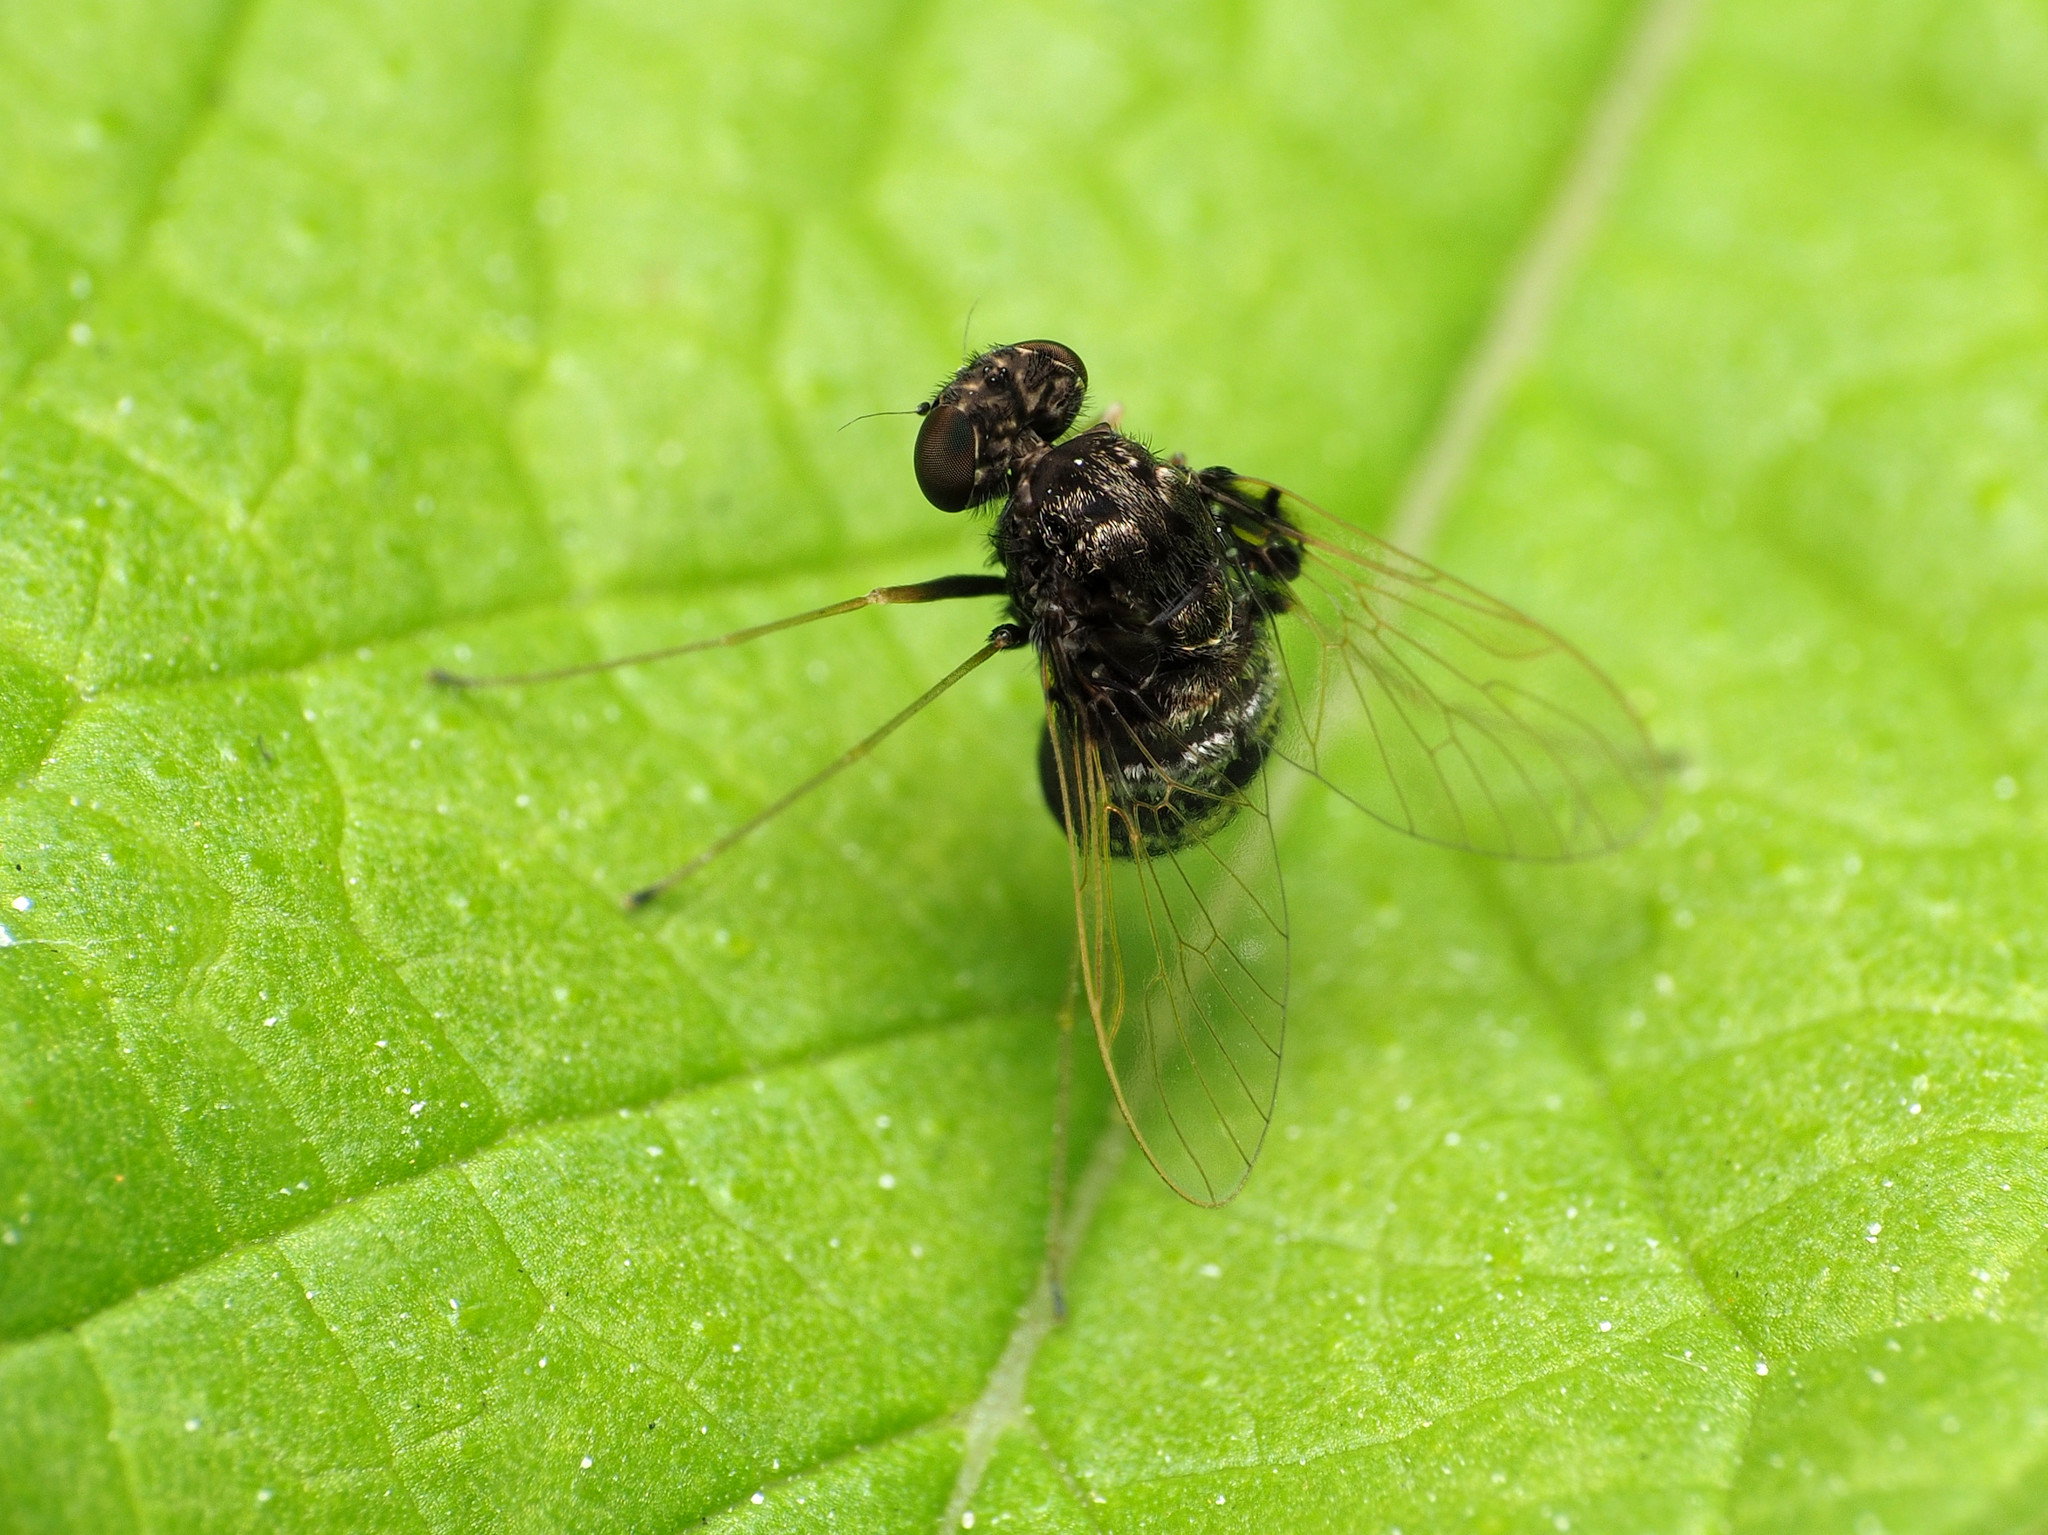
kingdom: Animalia
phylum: Arthropoda
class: Insecta
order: Diptera
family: Rhagionidae
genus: Chrysopilus
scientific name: Chrysopilus basilaris
